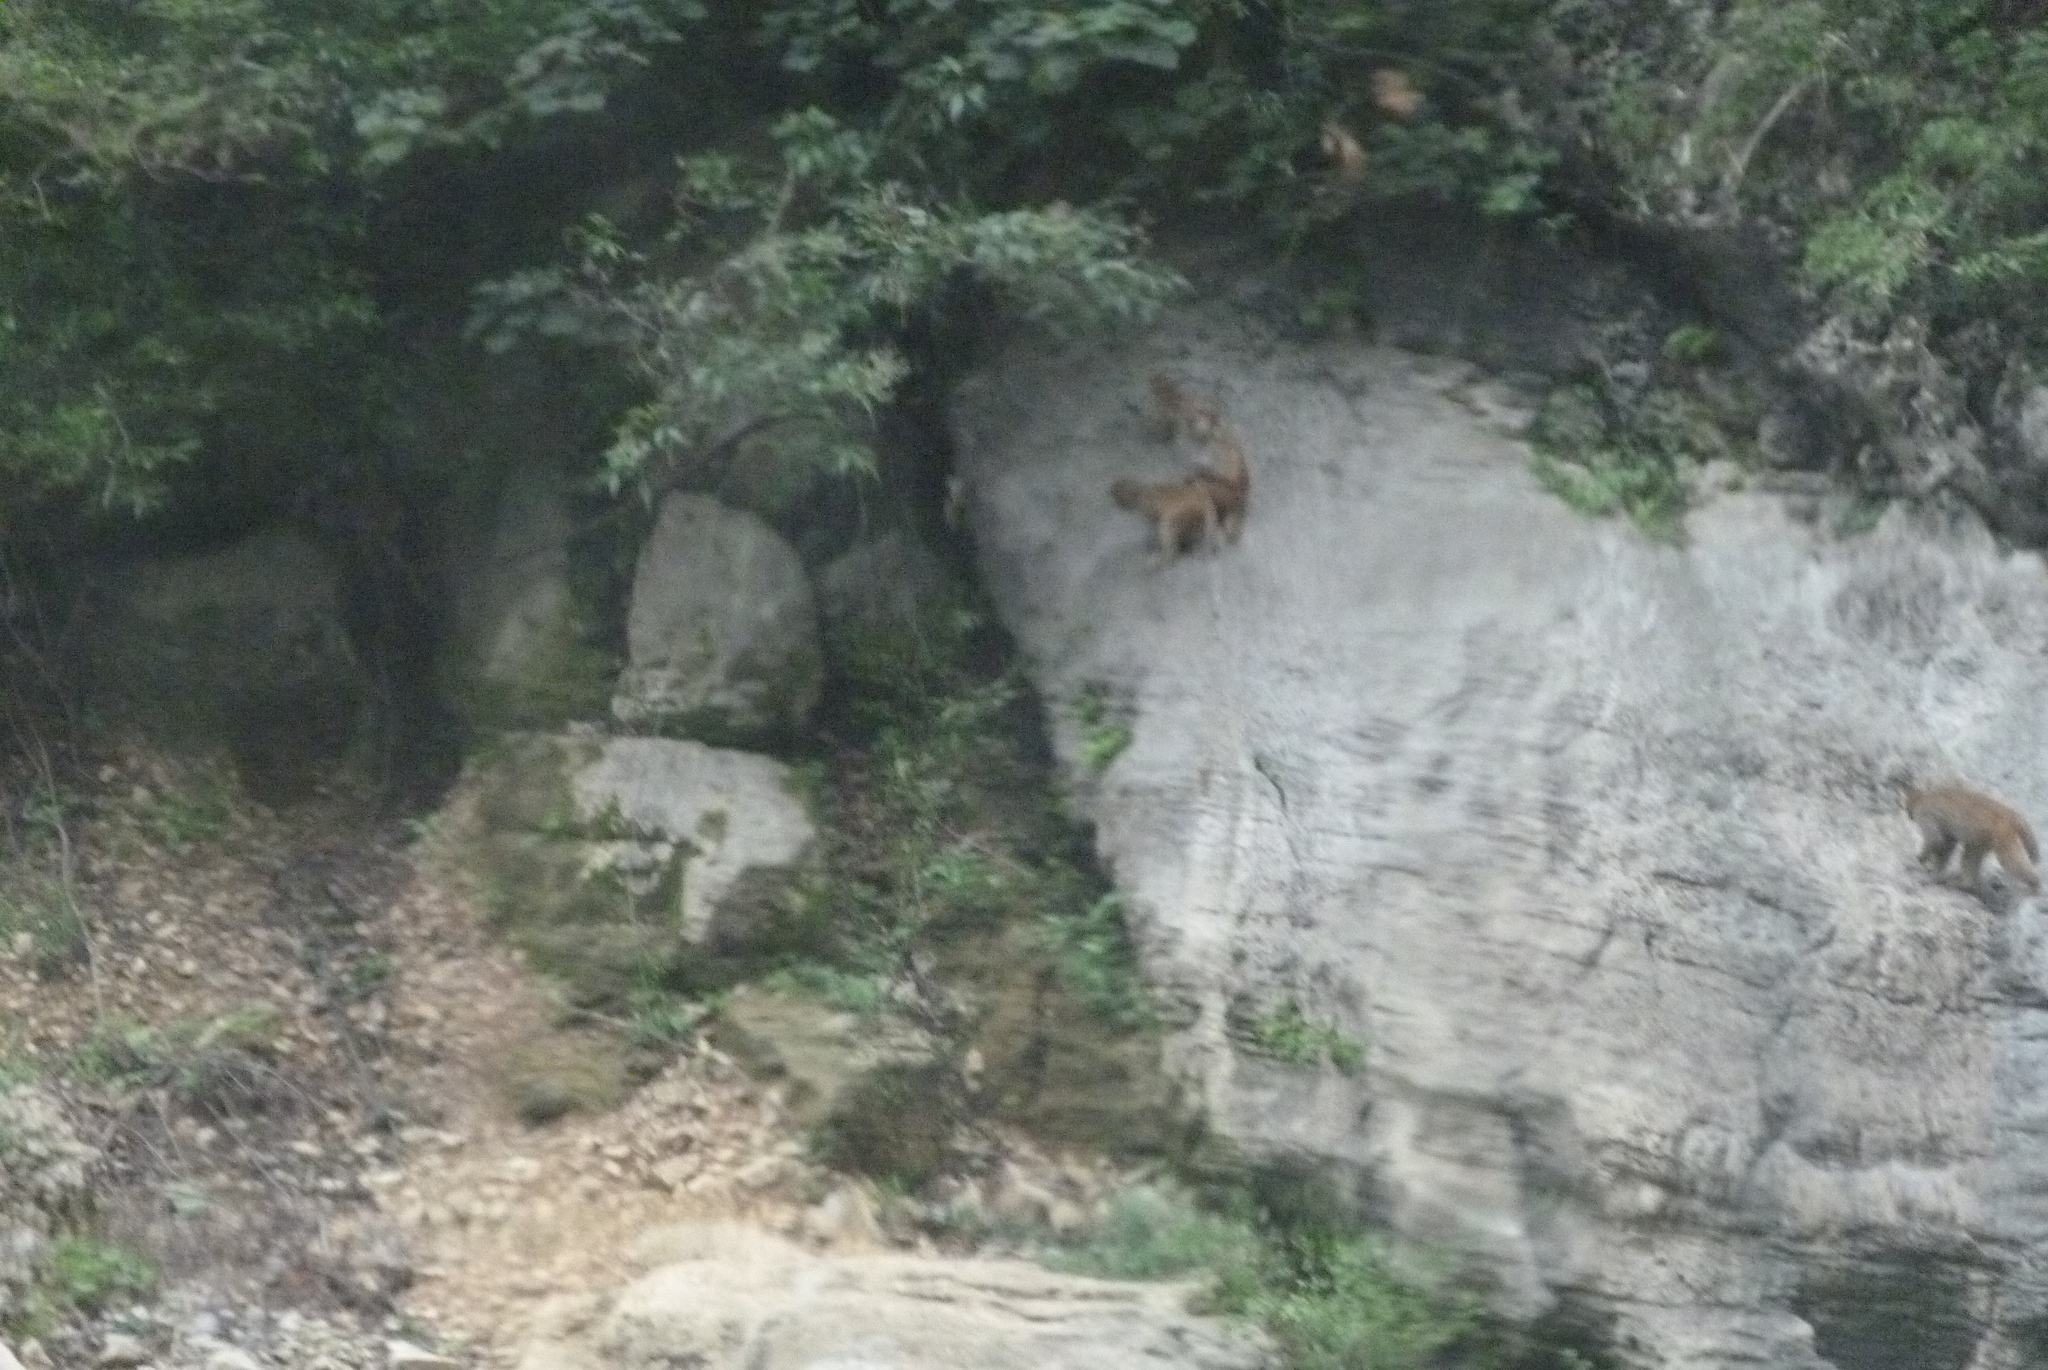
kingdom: Animalia
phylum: Chordata
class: Mammalia
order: Primates
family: Cercopithecidae
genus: Macaca
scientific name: Macaca mulatta
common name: Rhesus monkey
